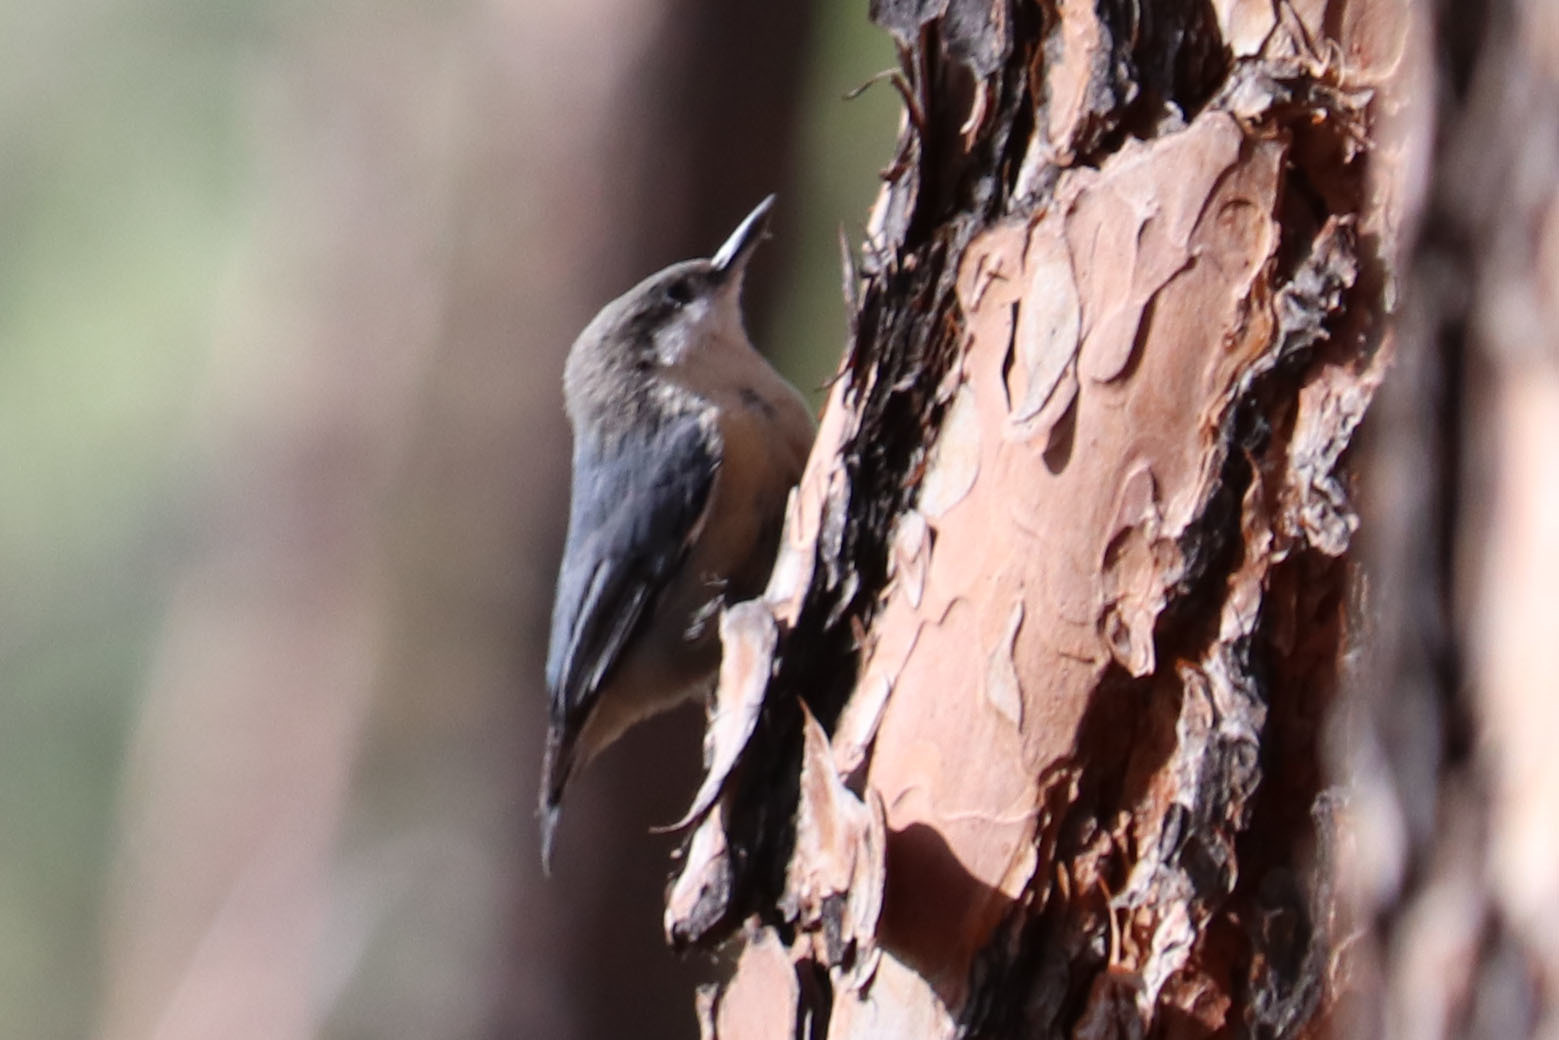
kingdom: Animalia
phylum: Chordata
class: Aves
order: Passeriformes
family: Sittidae
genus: Sitta
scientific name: Sitta pygmaea
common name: Pygmy nuthatch
